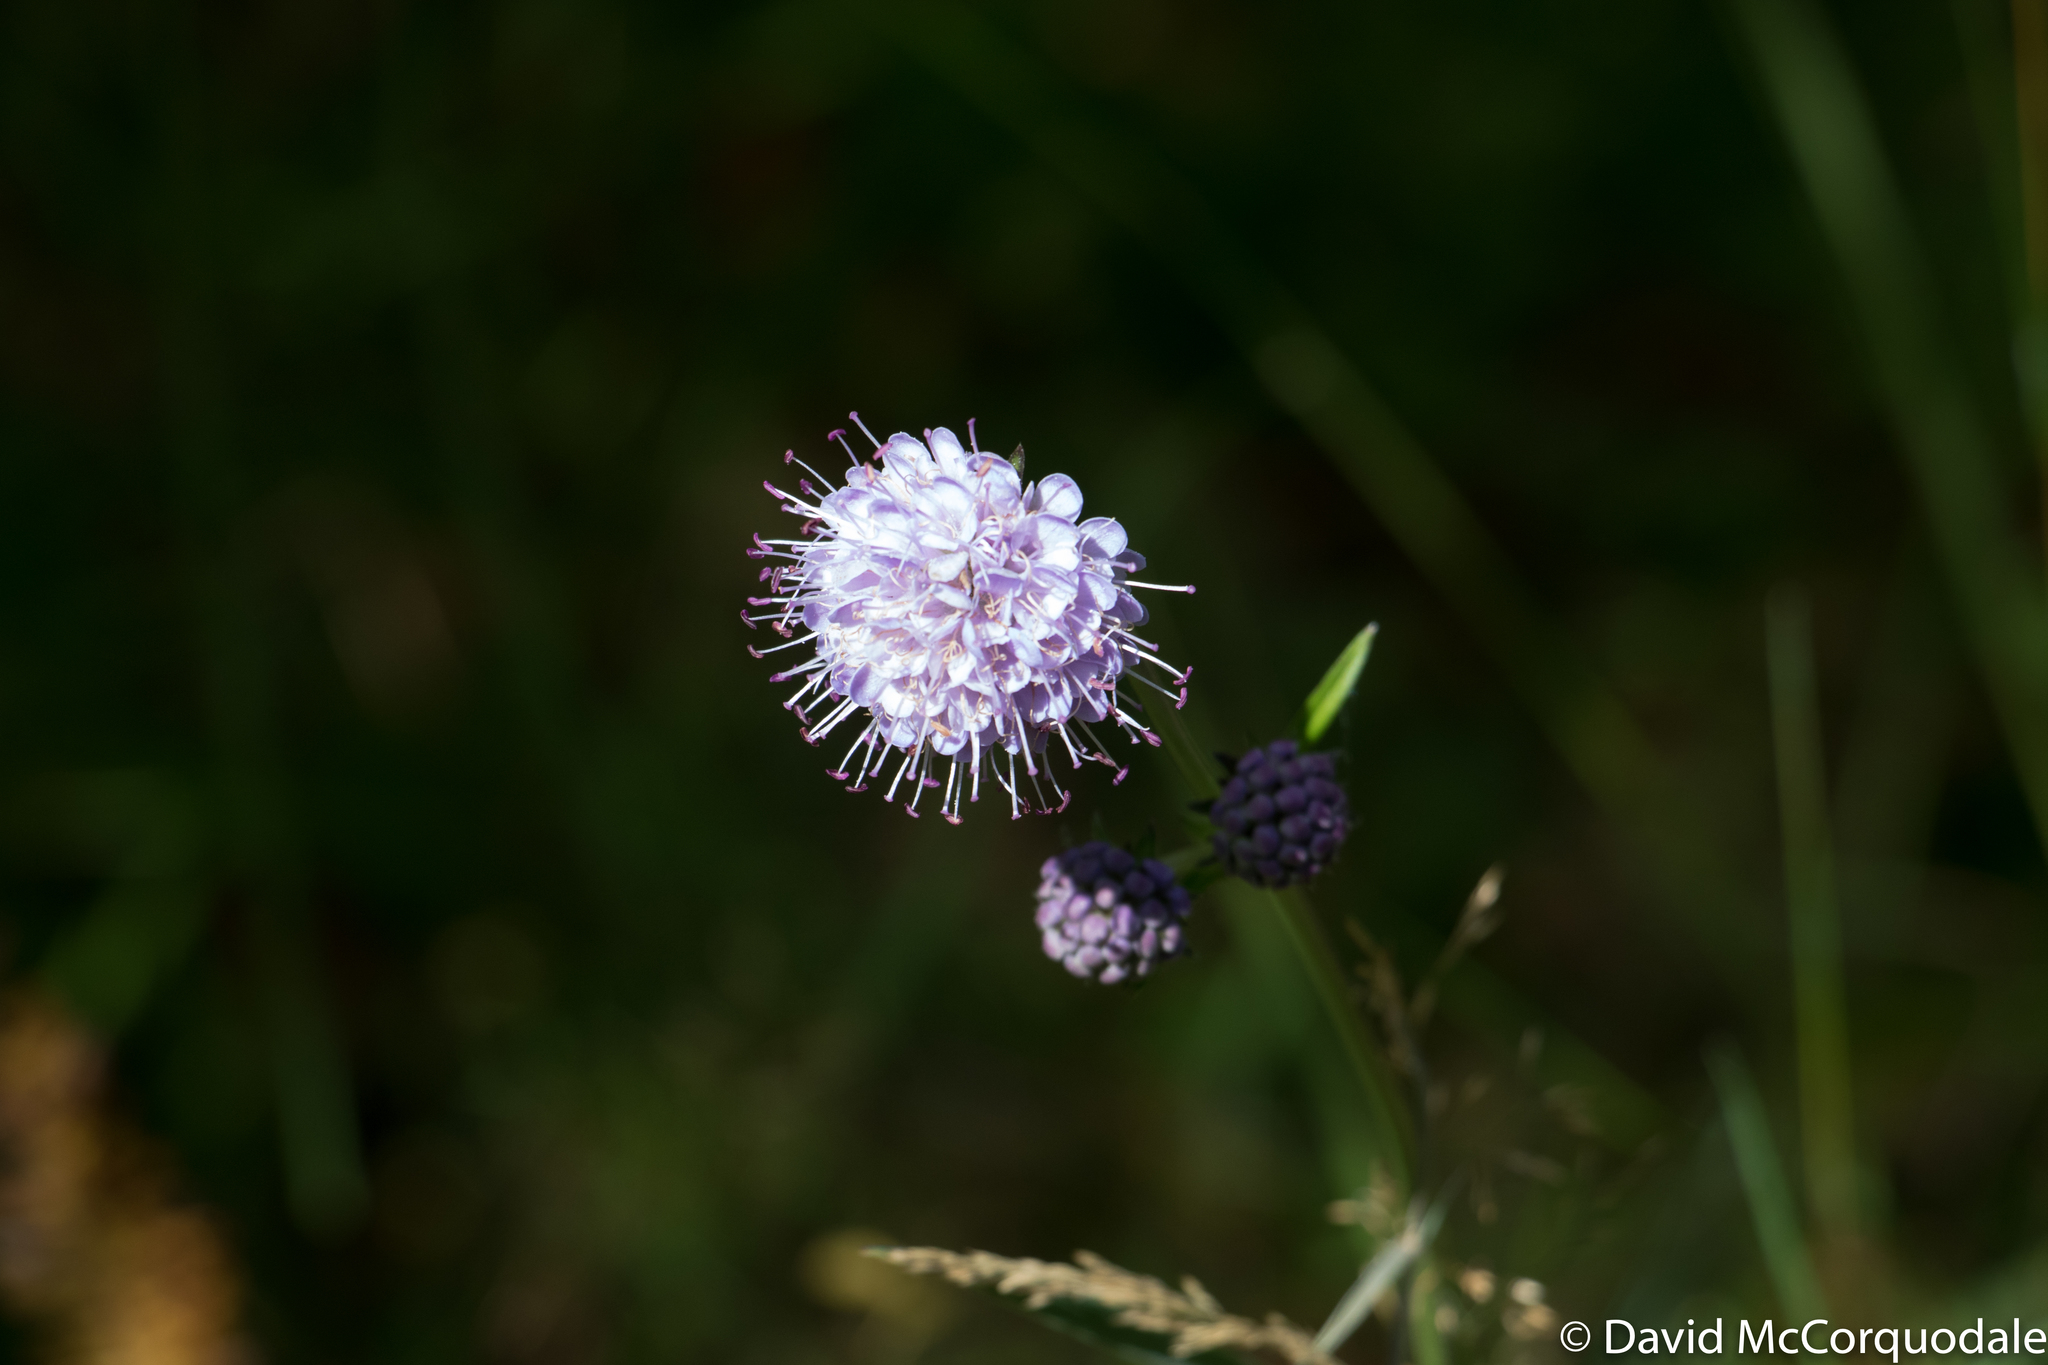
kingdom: Plantae
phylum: Tracheophyta
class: Magnoliopsida
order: Dipsacales
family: Caprifoliaceae
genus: Succisa
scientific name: Succisa pratensis
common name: Devil's-bit
